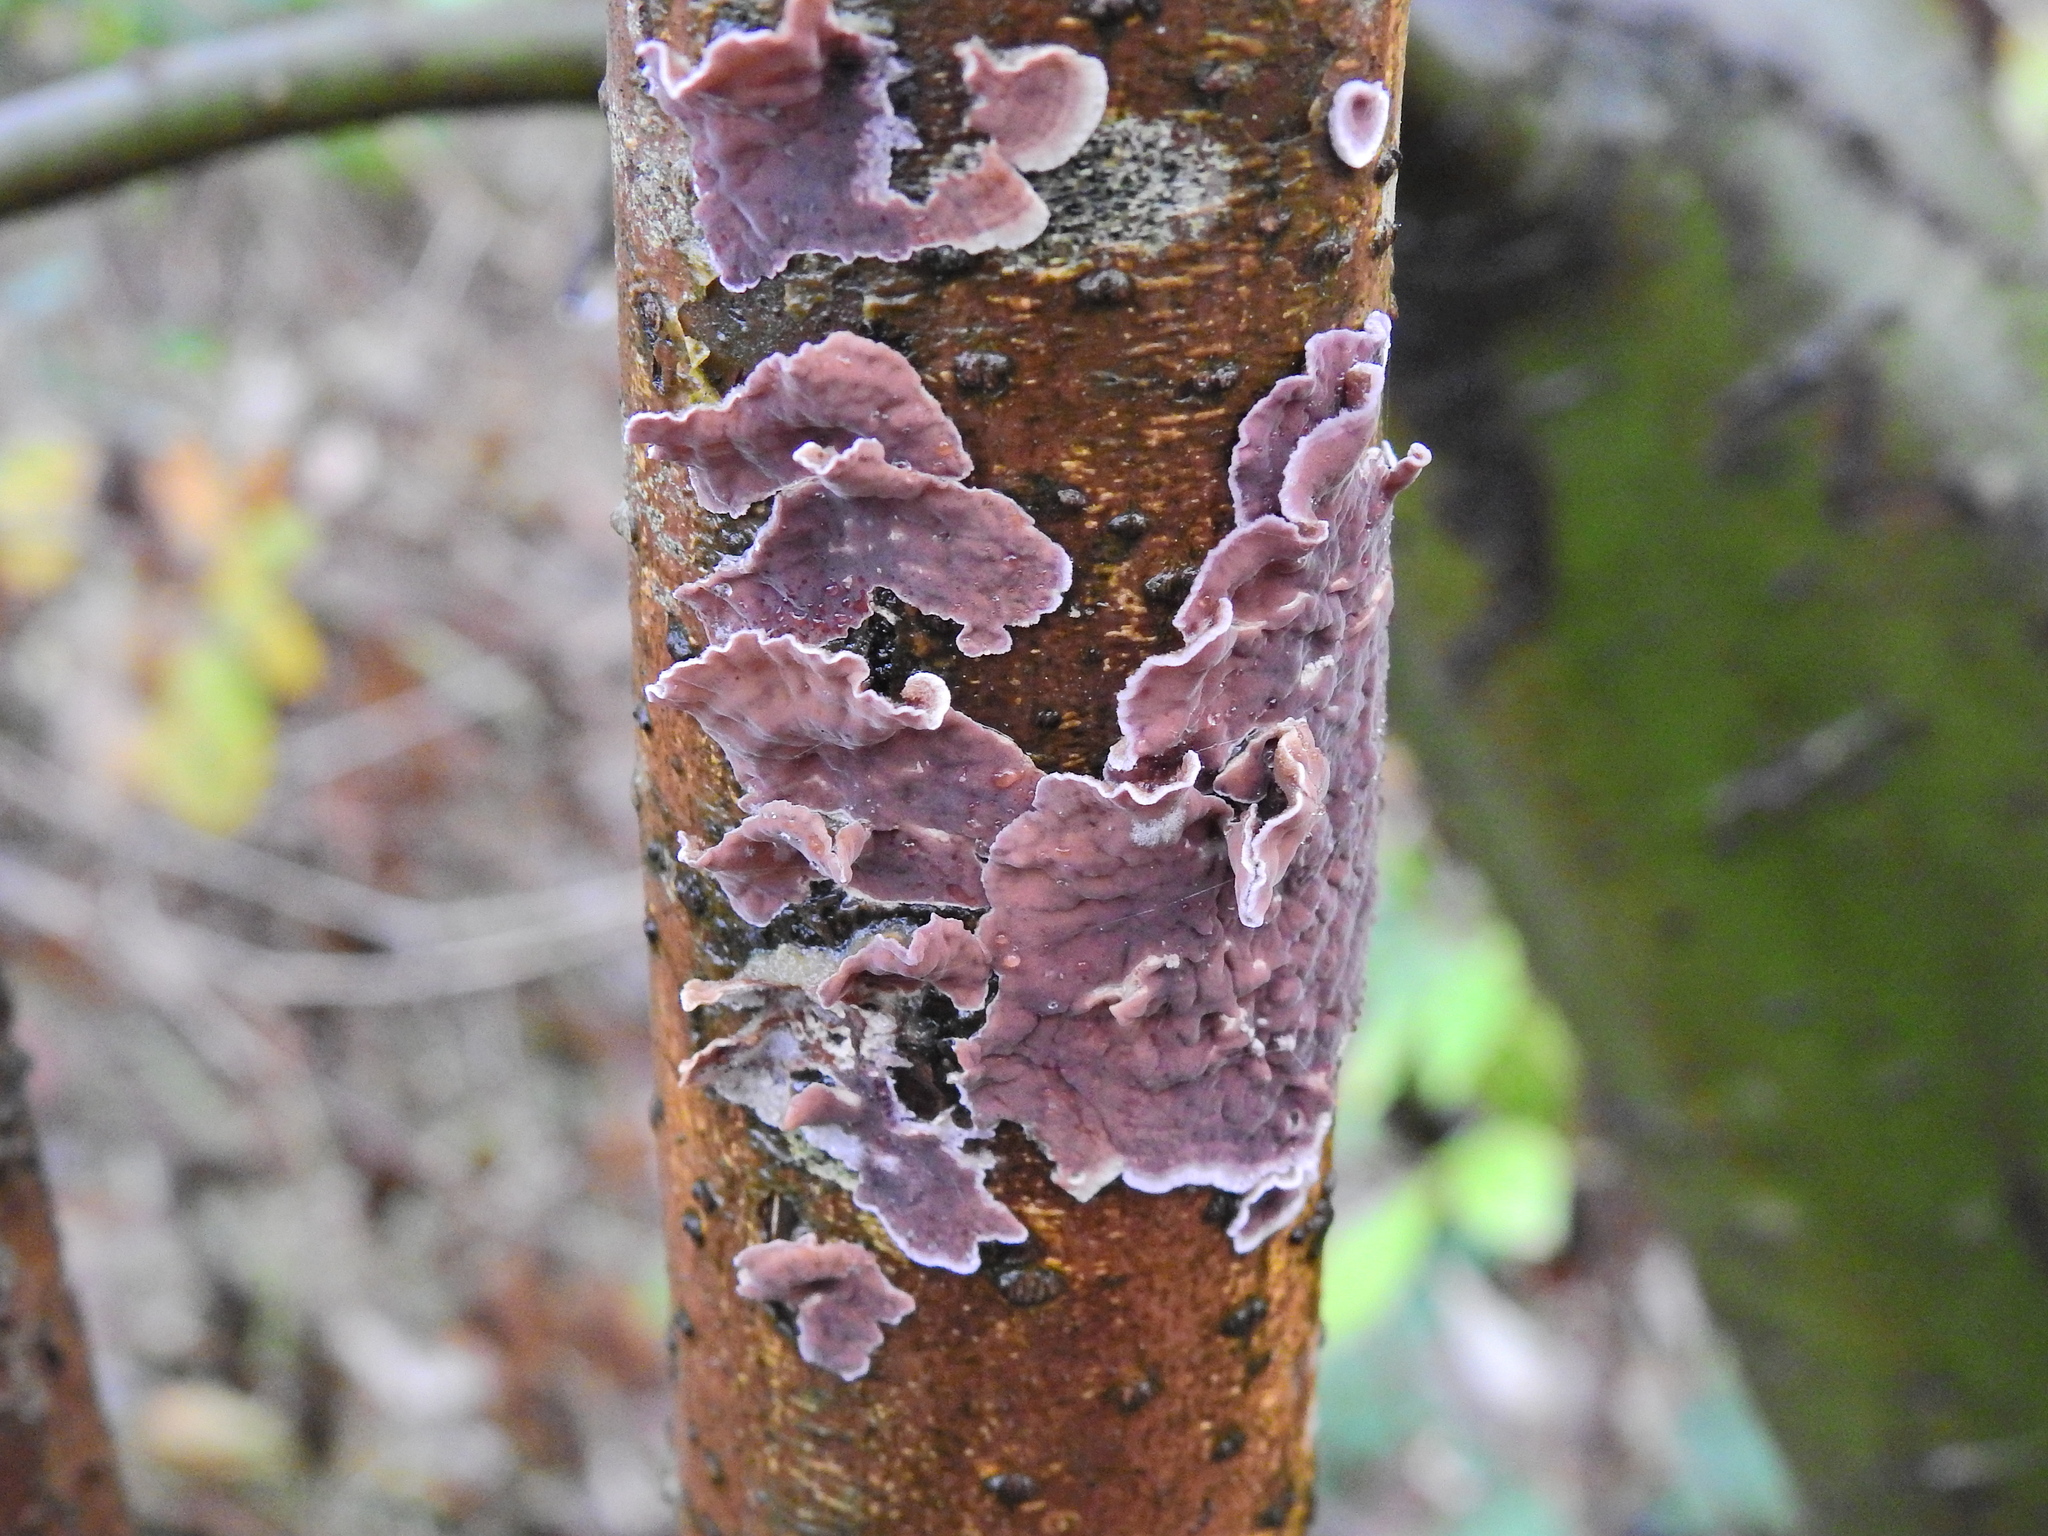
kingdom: Fungi
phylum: Basidiomycota
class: Agaricomycetes
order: Agaricales
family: Cyphellaceae
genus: Chondrostereum
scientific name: Chondrostereum purpureum
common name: Silver leaf disease
